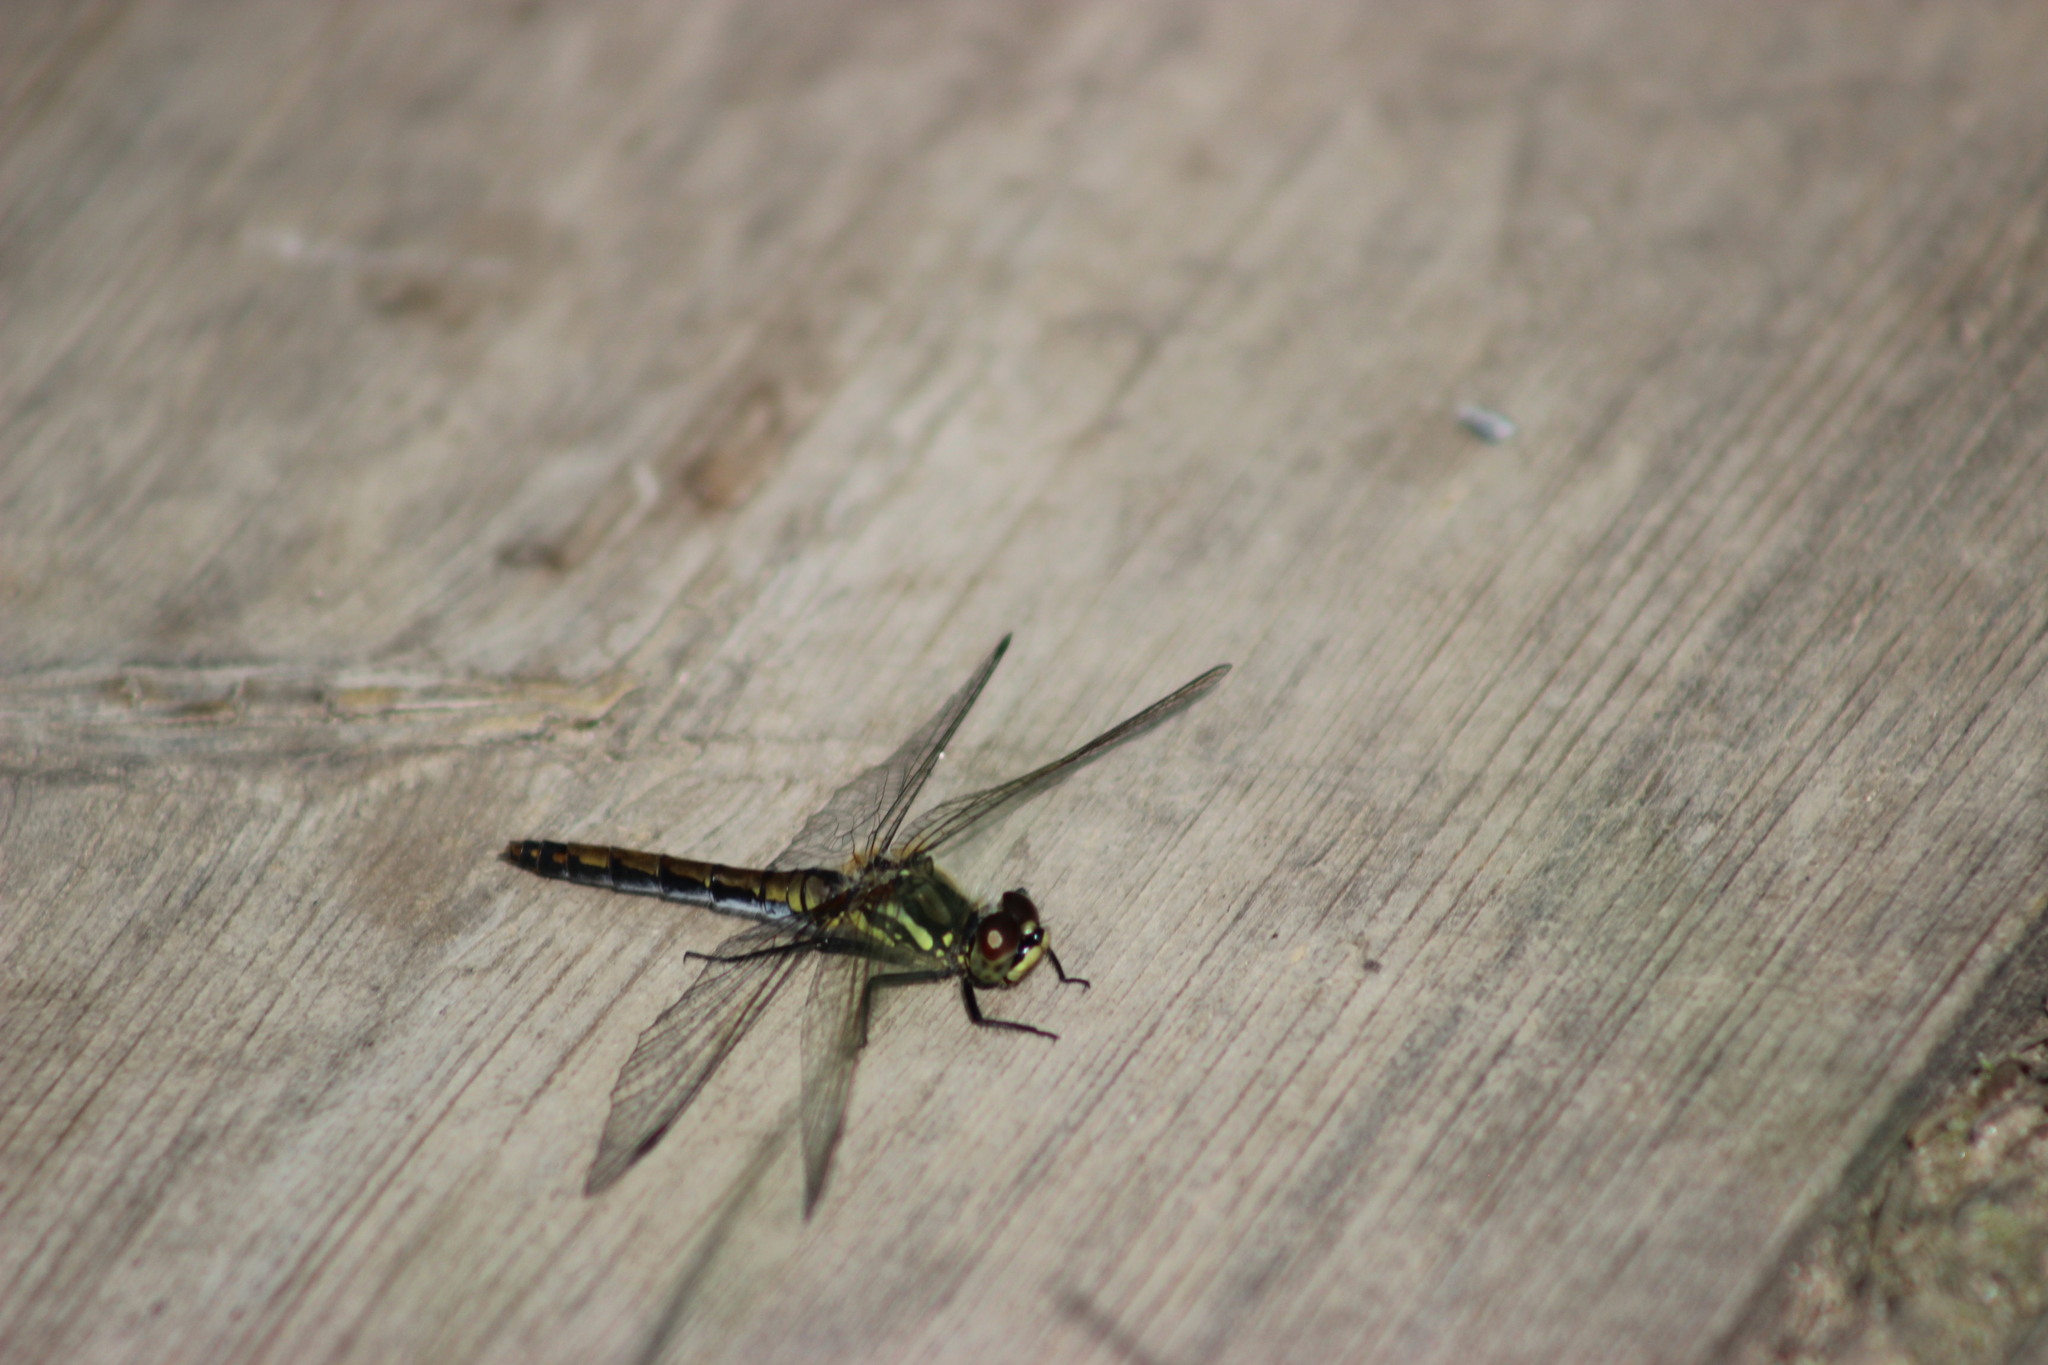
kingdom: Animalia
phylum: Arthropoda
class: Insecta
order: Odonata
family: Libellulidae
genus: Sympetrum
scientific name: Sympetrum danae
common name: Black darter
